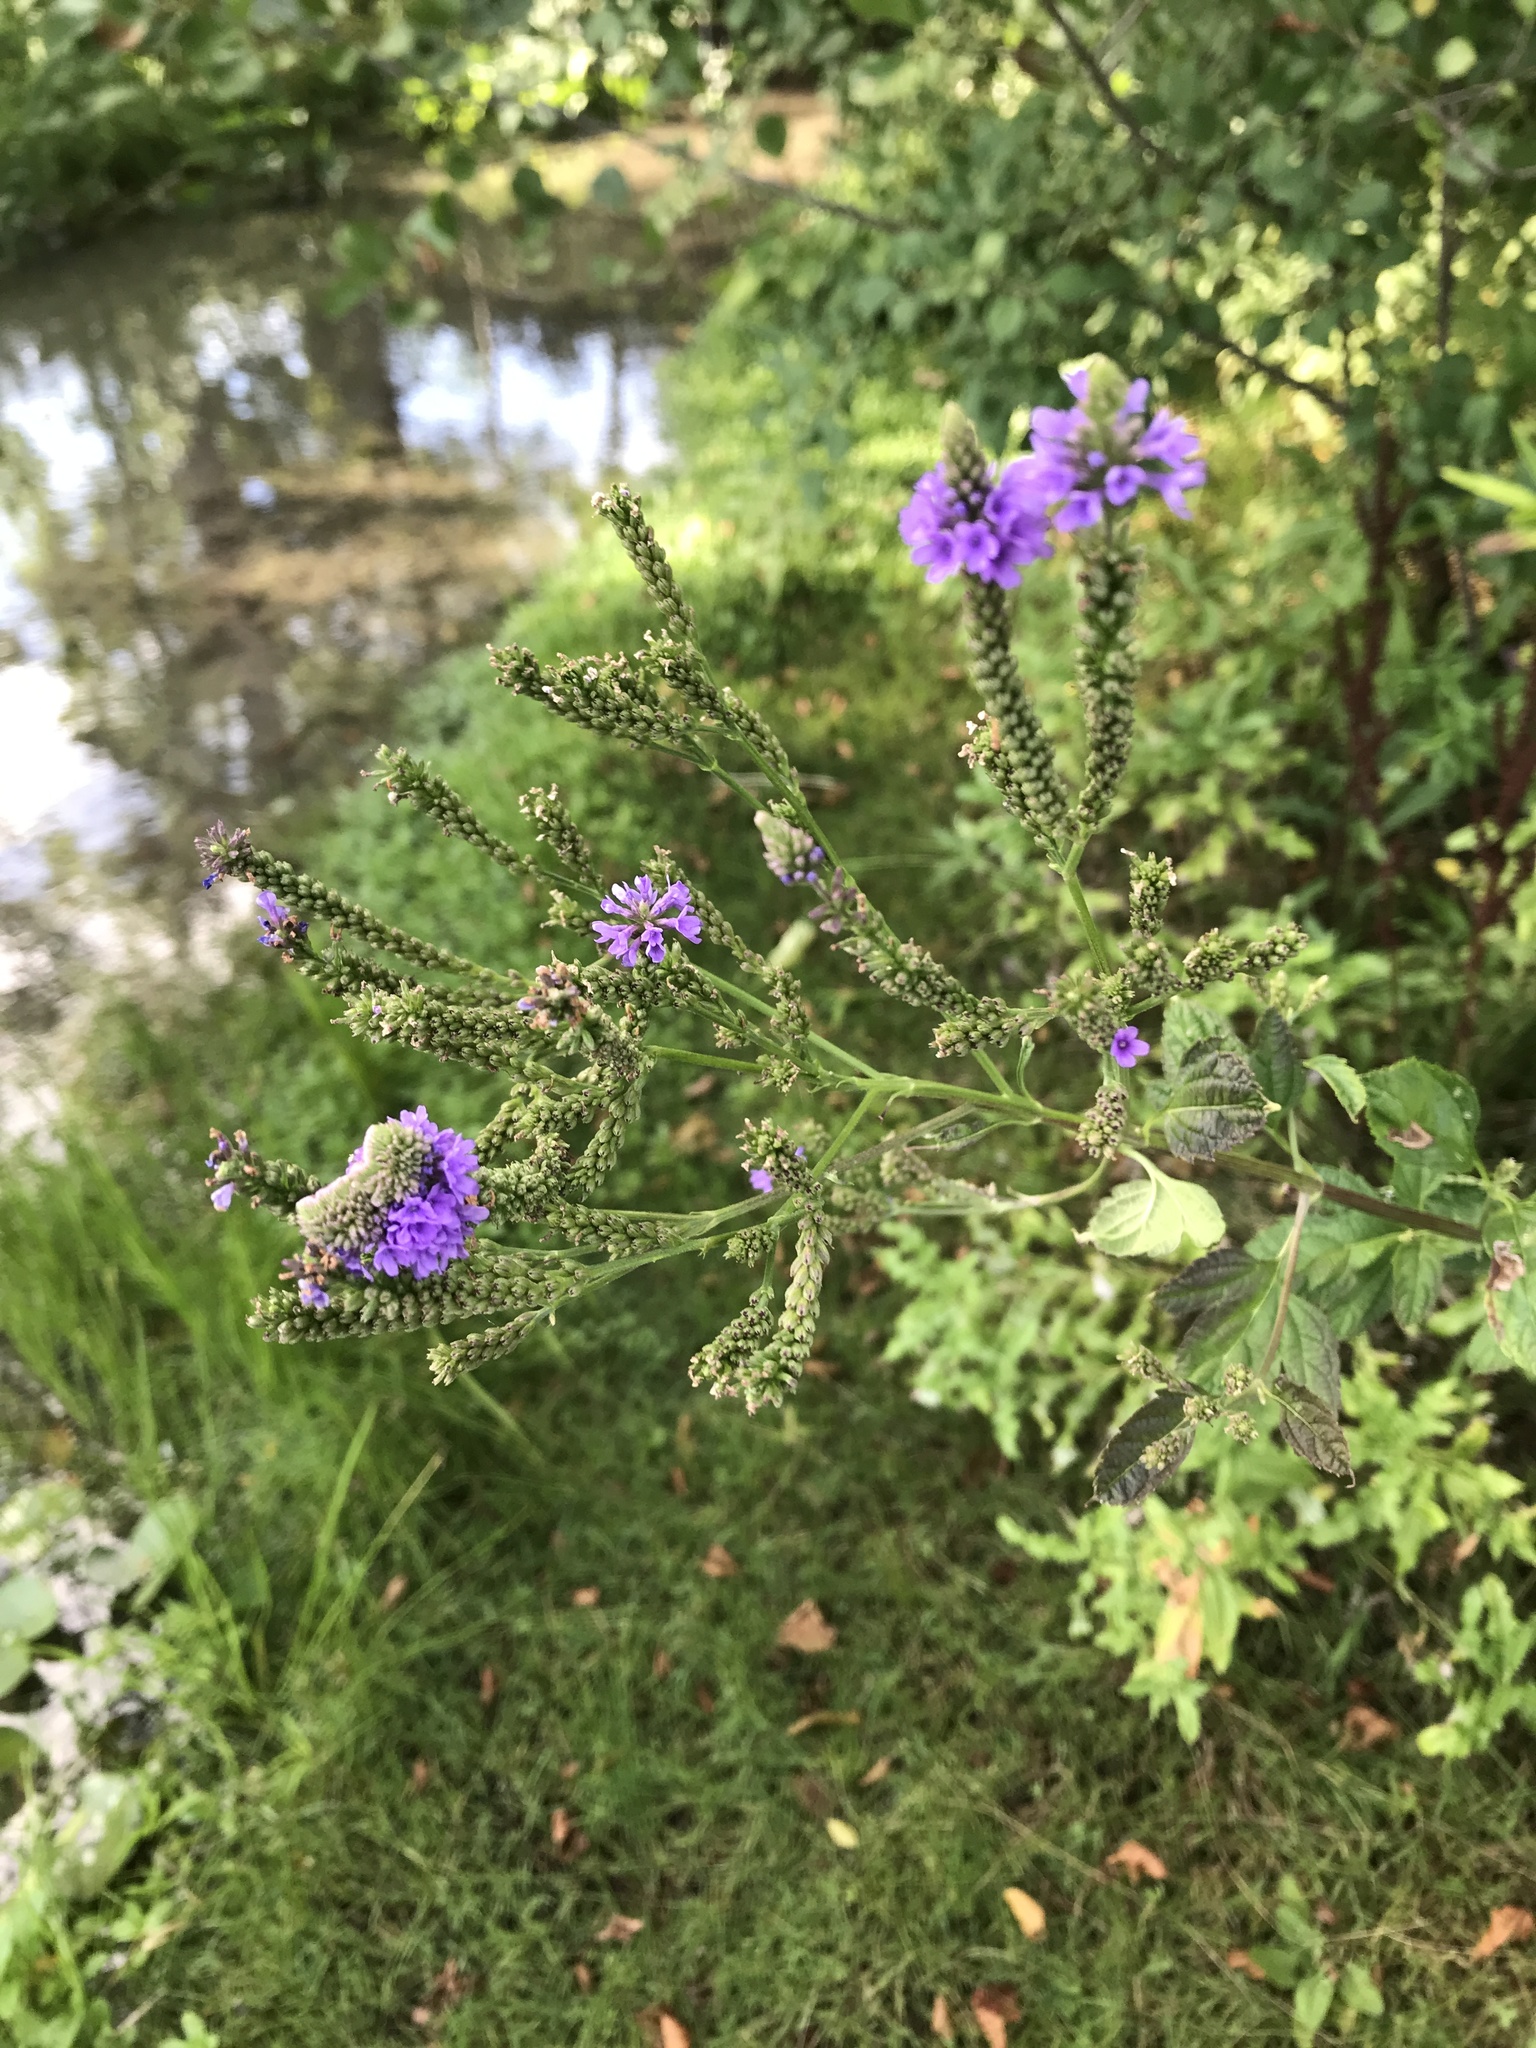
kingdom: Plantae
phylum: Tracheophyta
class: Magnoliopsida
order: Lamiales
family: Verbenaceae
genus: Verbena
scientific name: Verbena hastata
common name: American blue vervain
